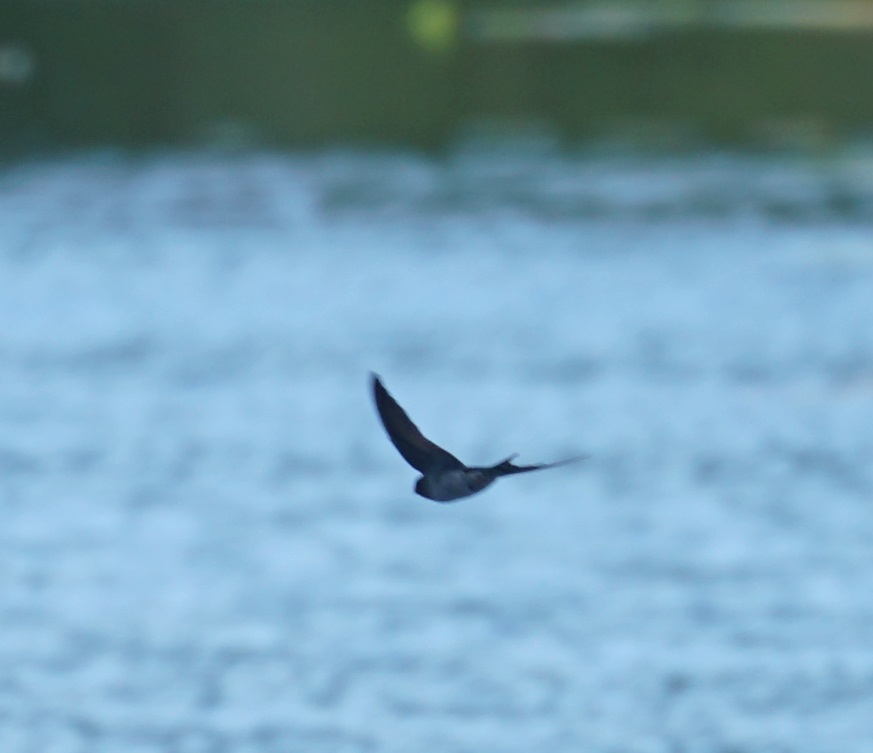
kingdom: Animalia
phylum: Chordata
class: Aves
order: Passeriformes
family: Hirundinidae
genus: Hirundo
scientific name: Hirundo neoxena
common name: Welcome swallow
